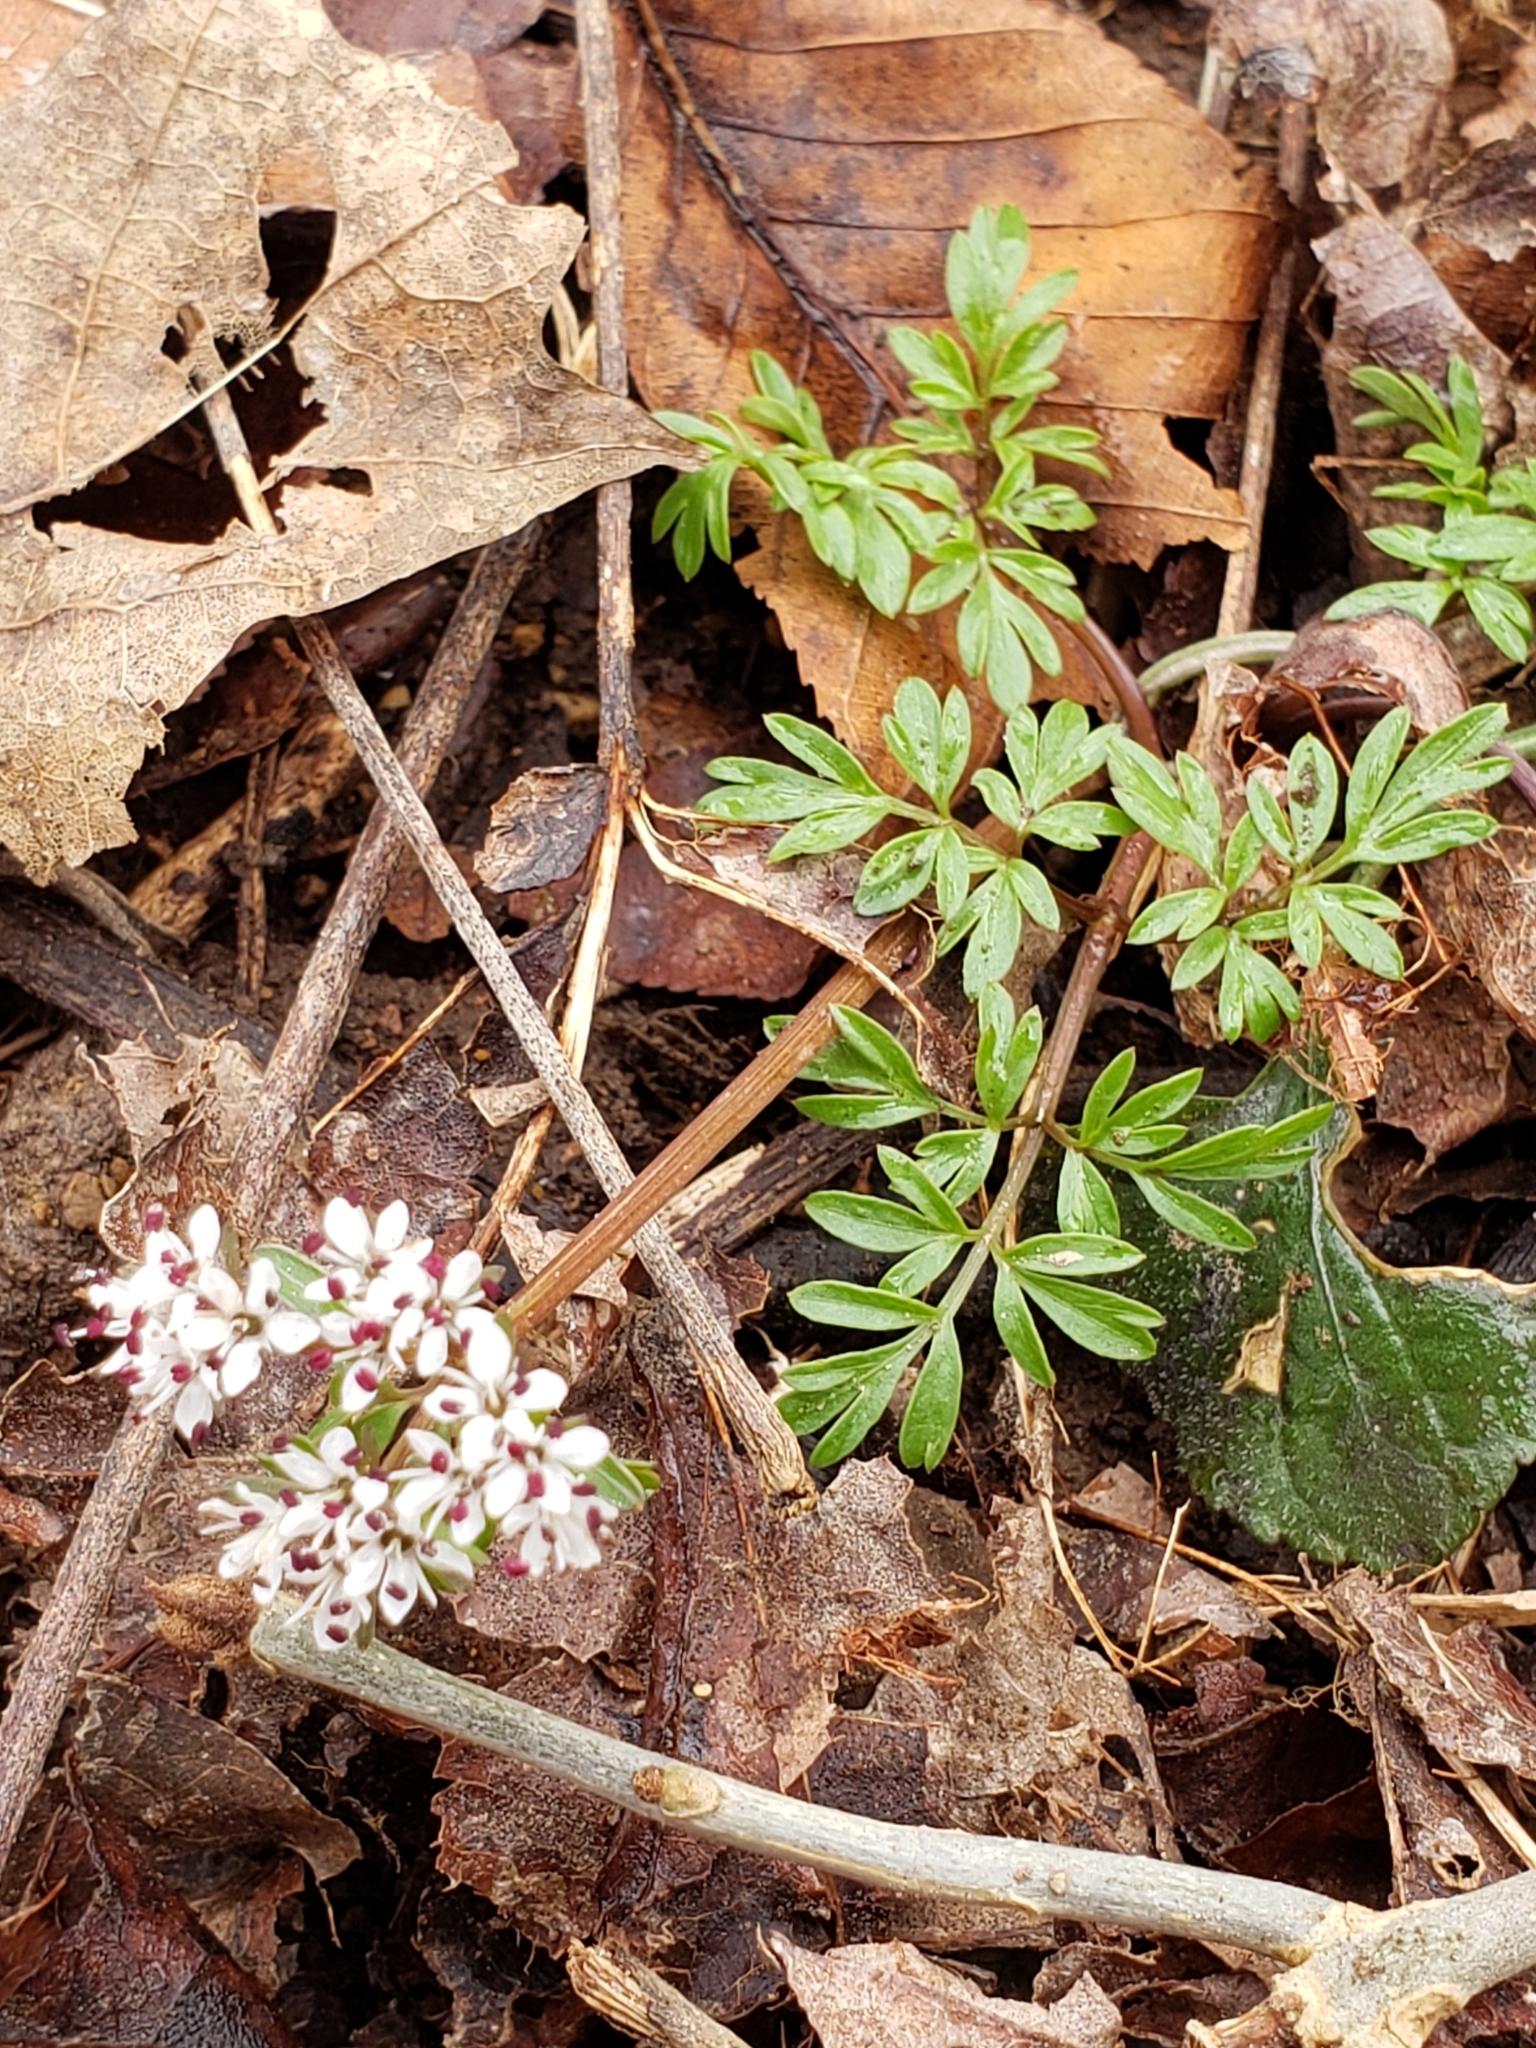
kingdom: Plantae
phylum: Tracheophyta
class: Magnoliopsida
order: Apiales
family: Apiaceae
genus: Erigenia
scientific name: Erigenia bulbosa
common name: Pepper-and-salt
